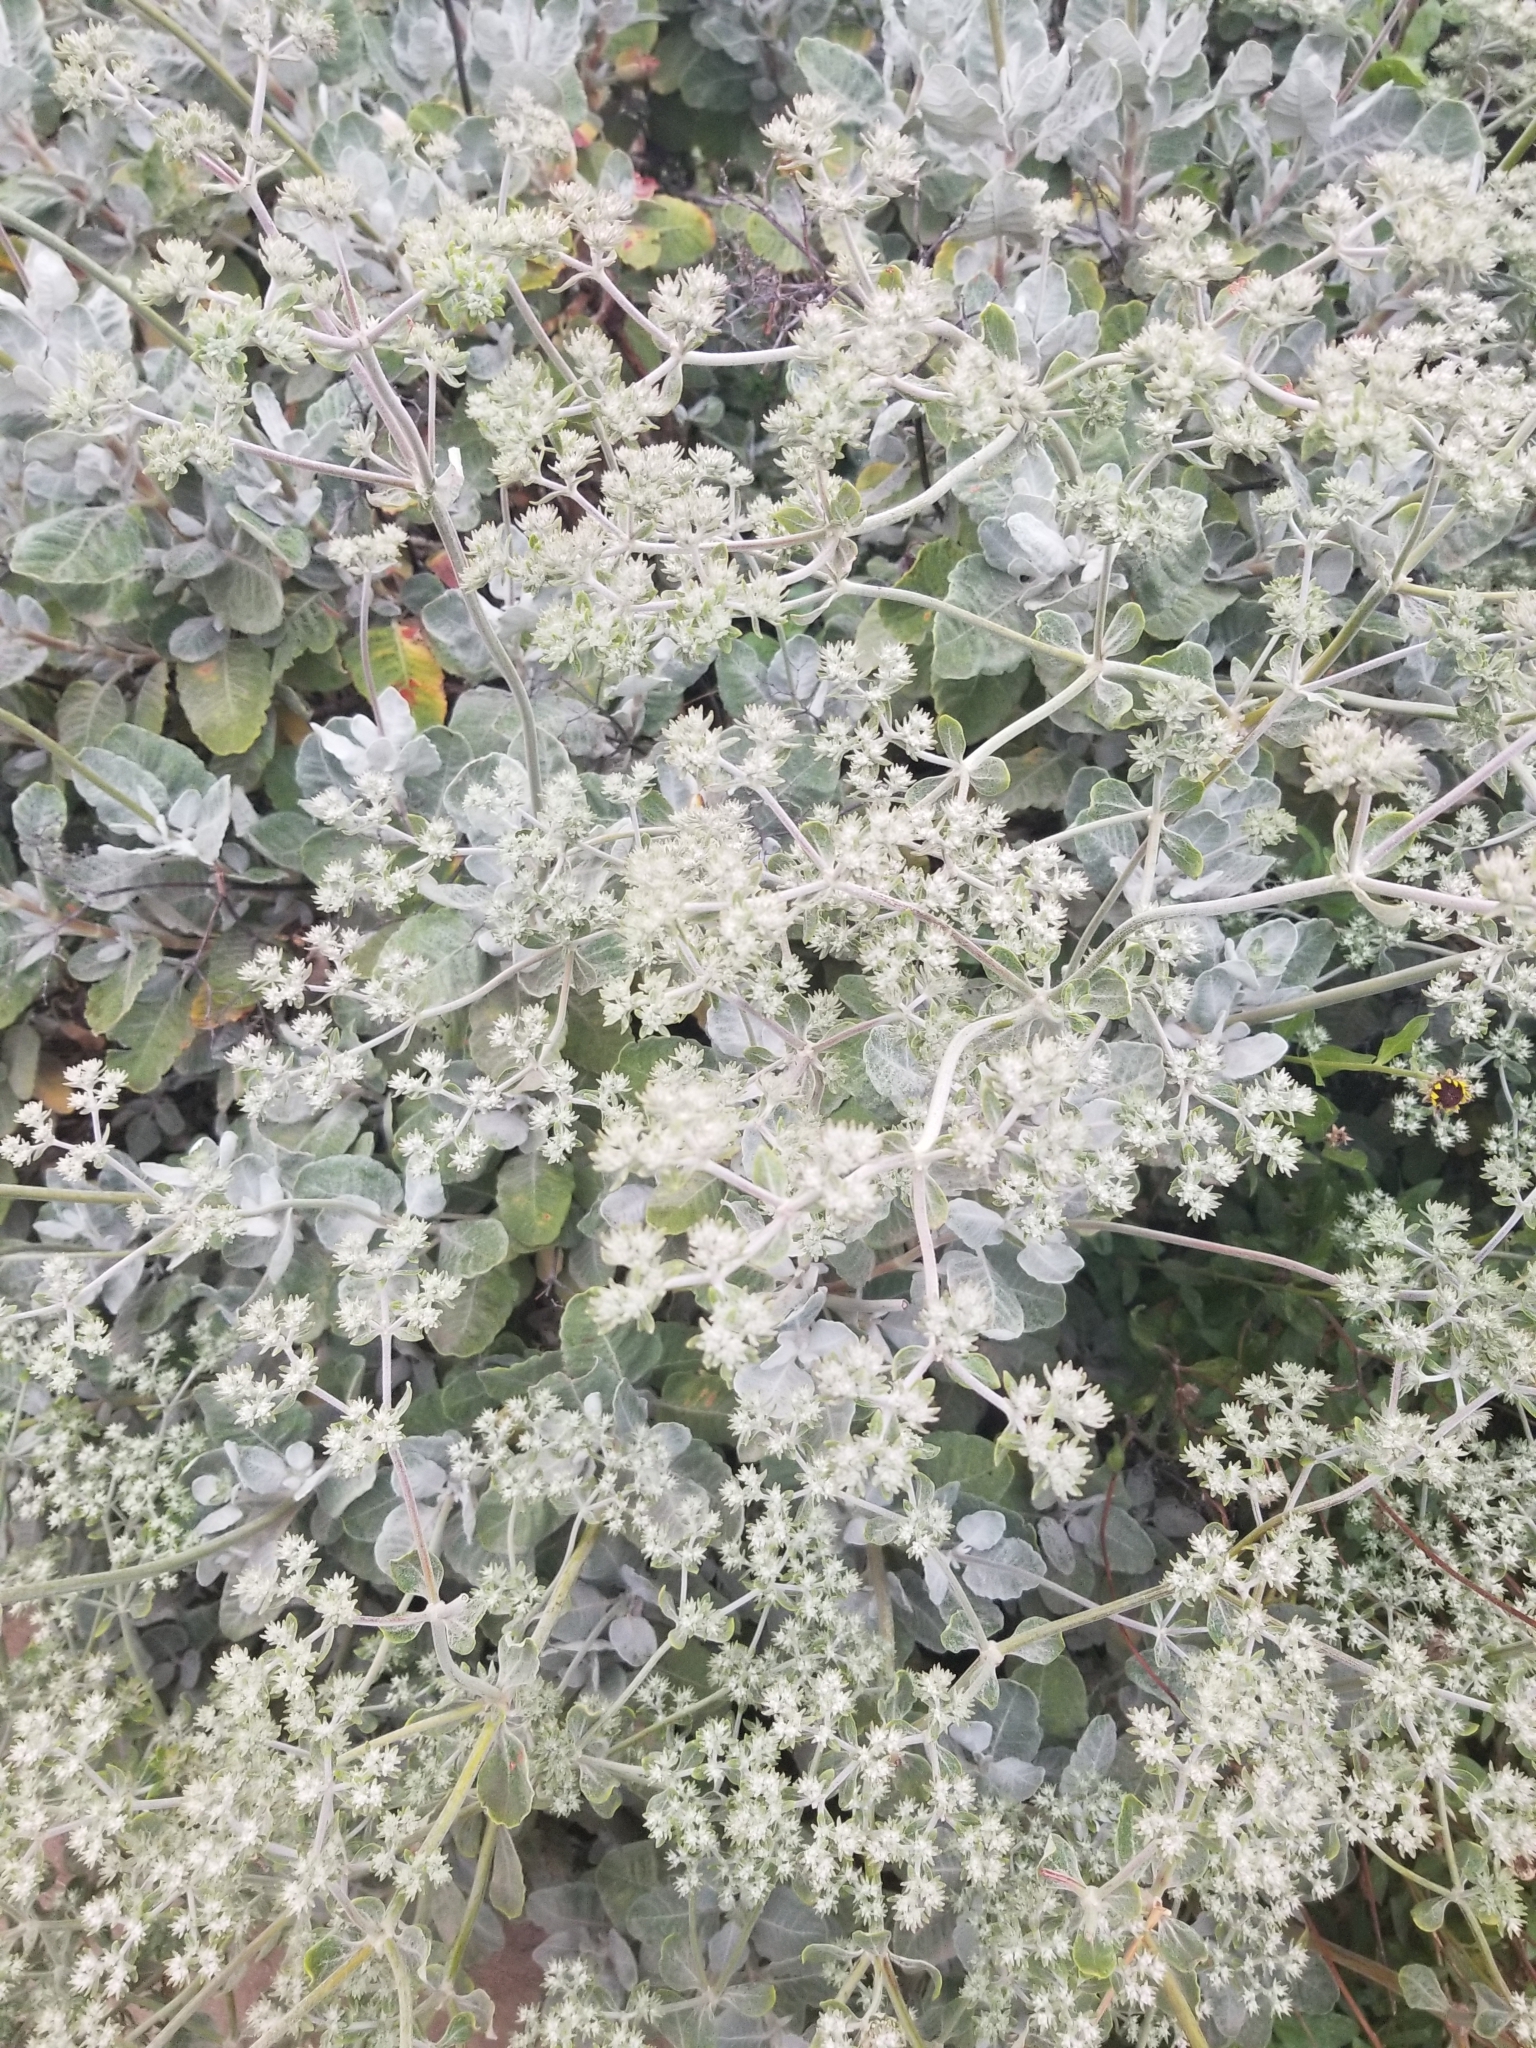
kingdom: Plantae
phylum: Tracheophyta
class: Magnoliopsida
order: Caryophyllales
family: Polygonaceae
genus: Eriogonum
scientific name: Eriogonum giganteum
